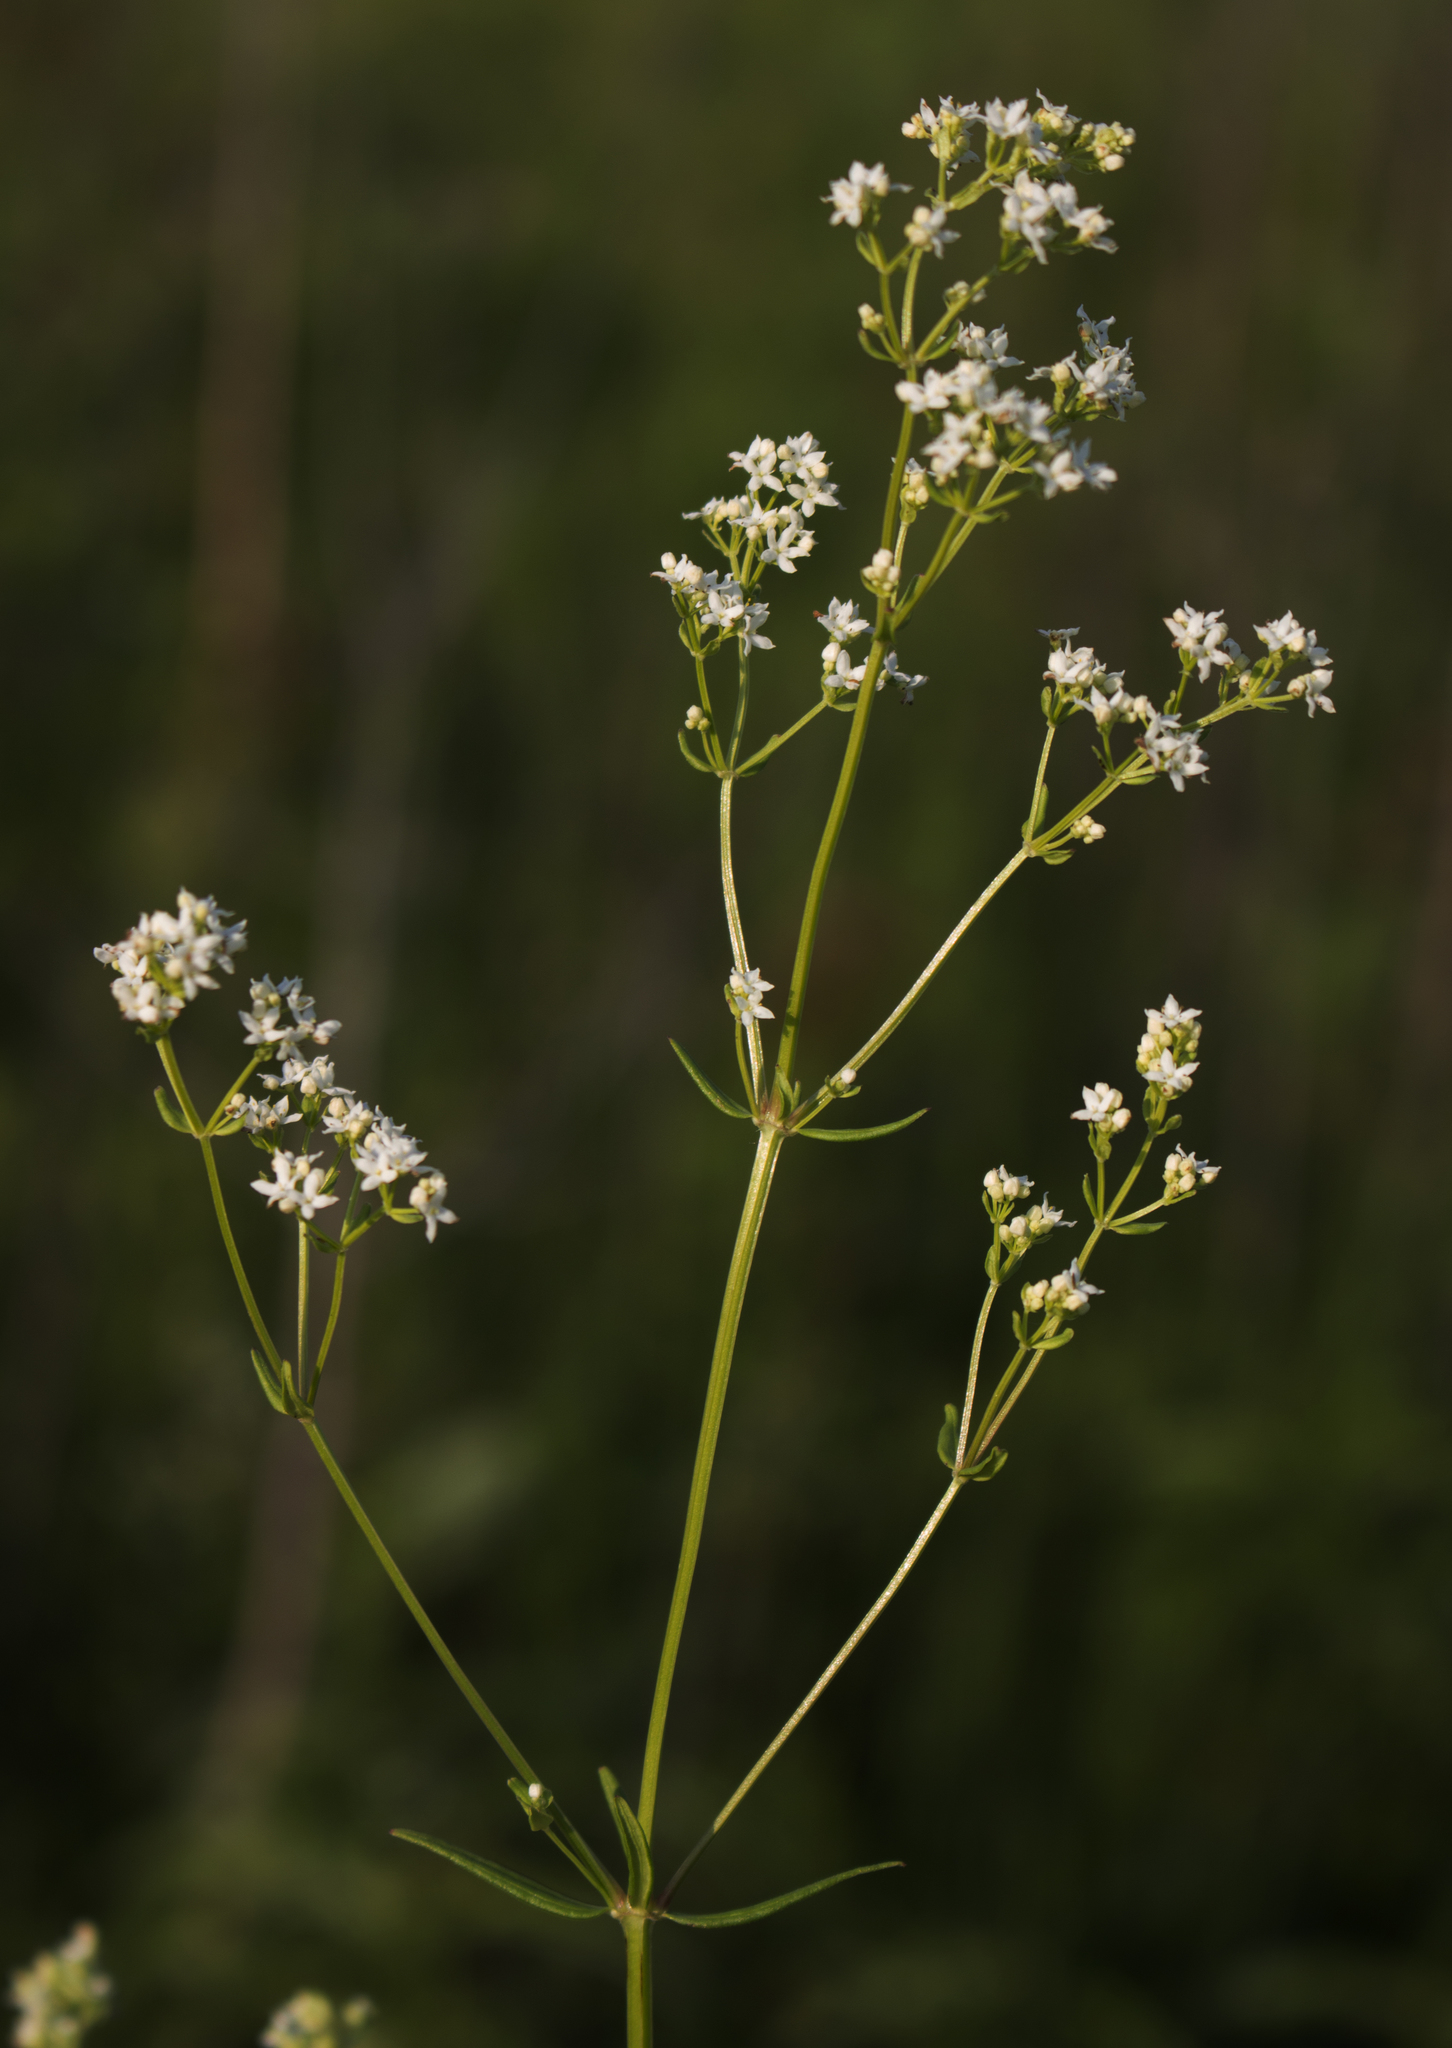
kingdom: Plantae
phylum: Tracheophyta
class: Magnoliopsida
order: Gentianales
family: Rubiaceae
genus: Galium
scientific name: Galium boreale
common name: Northern bedstraw
